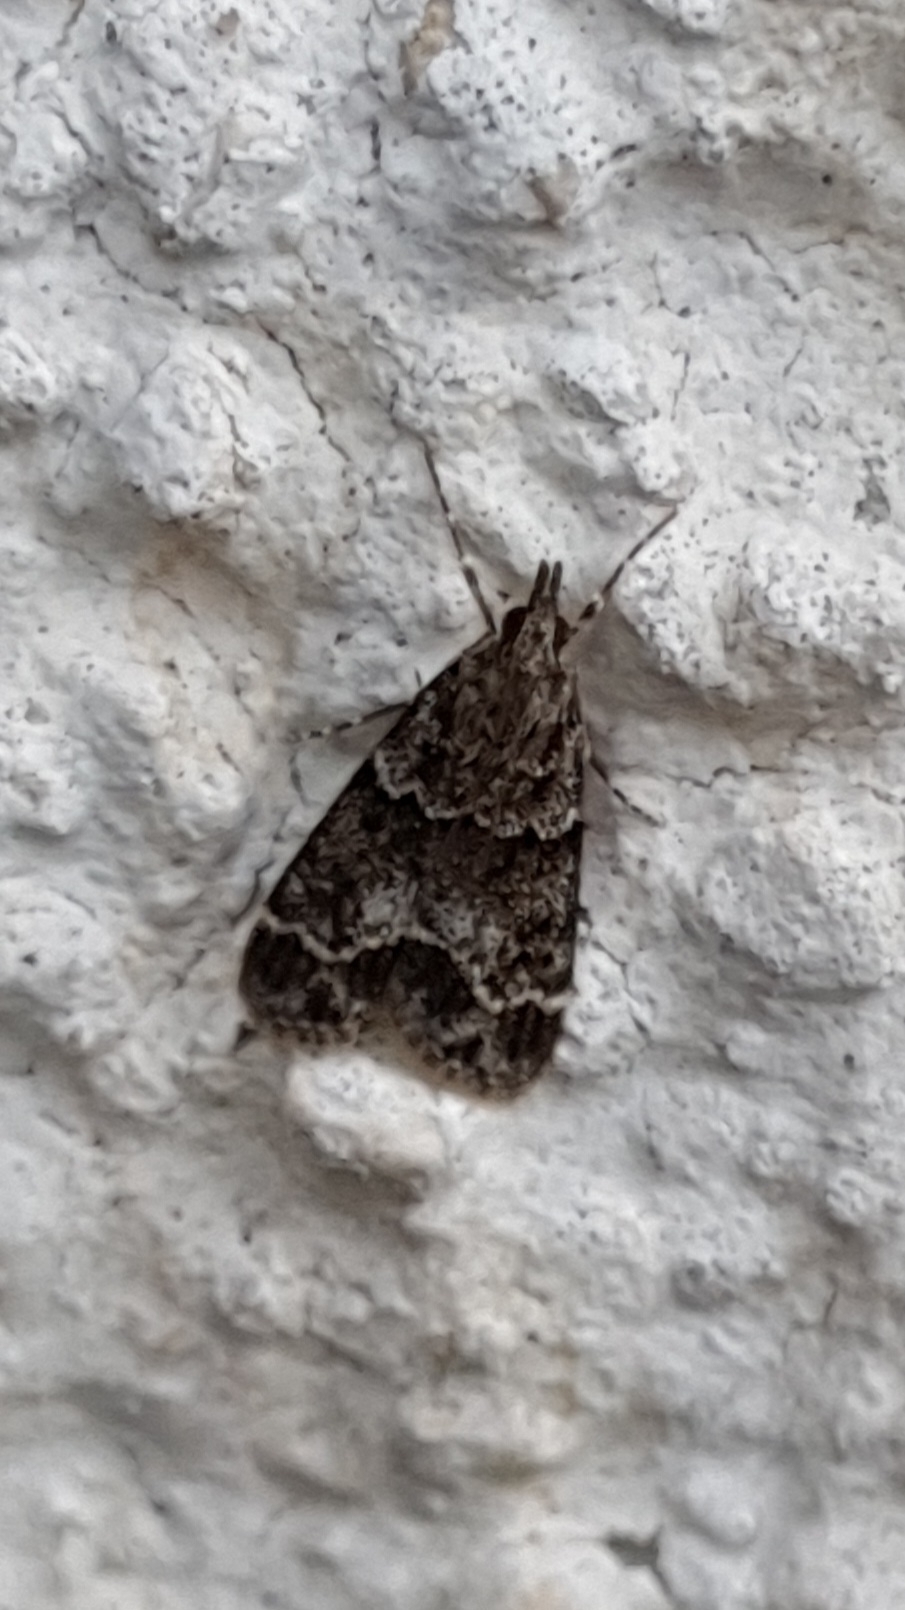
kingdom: Animalia
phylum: Arthropoda
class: Insecta
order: Lepidoptera
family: Crambidae
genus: Eudonia
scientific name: Eudonia mercurella
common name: Small grey
